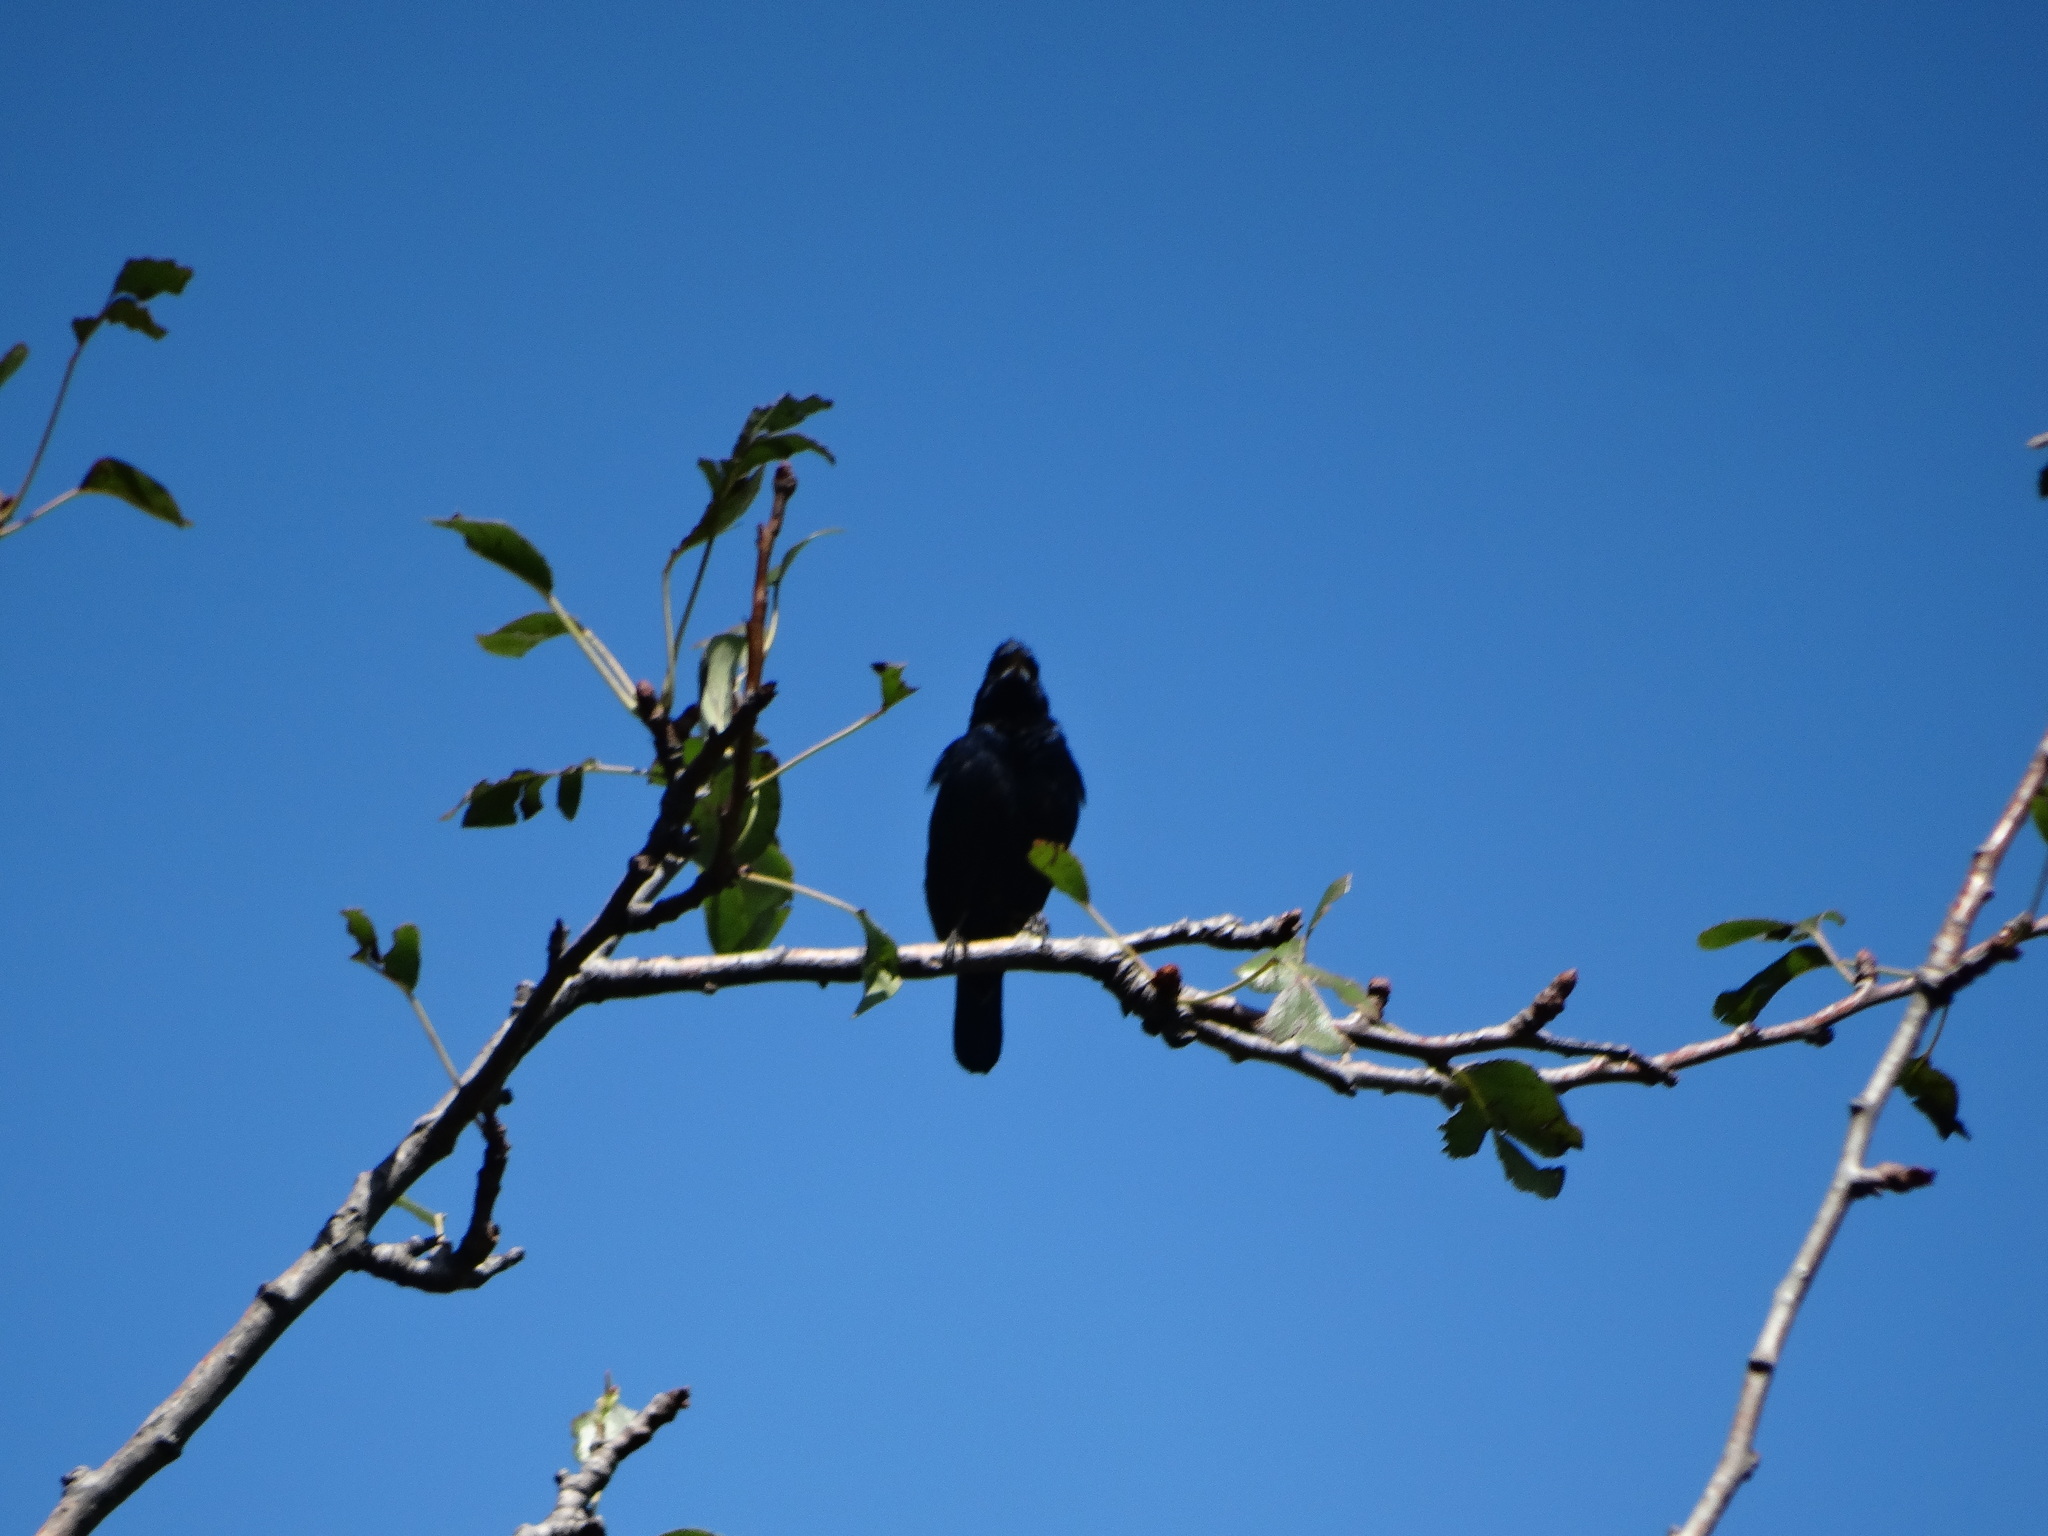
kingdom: Animalia
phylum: Chordata
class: Aves
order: Passeriformes
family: Thraupidae
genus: Volatinia
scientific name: Volatinia jacarina
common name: Blue-black grassquit
